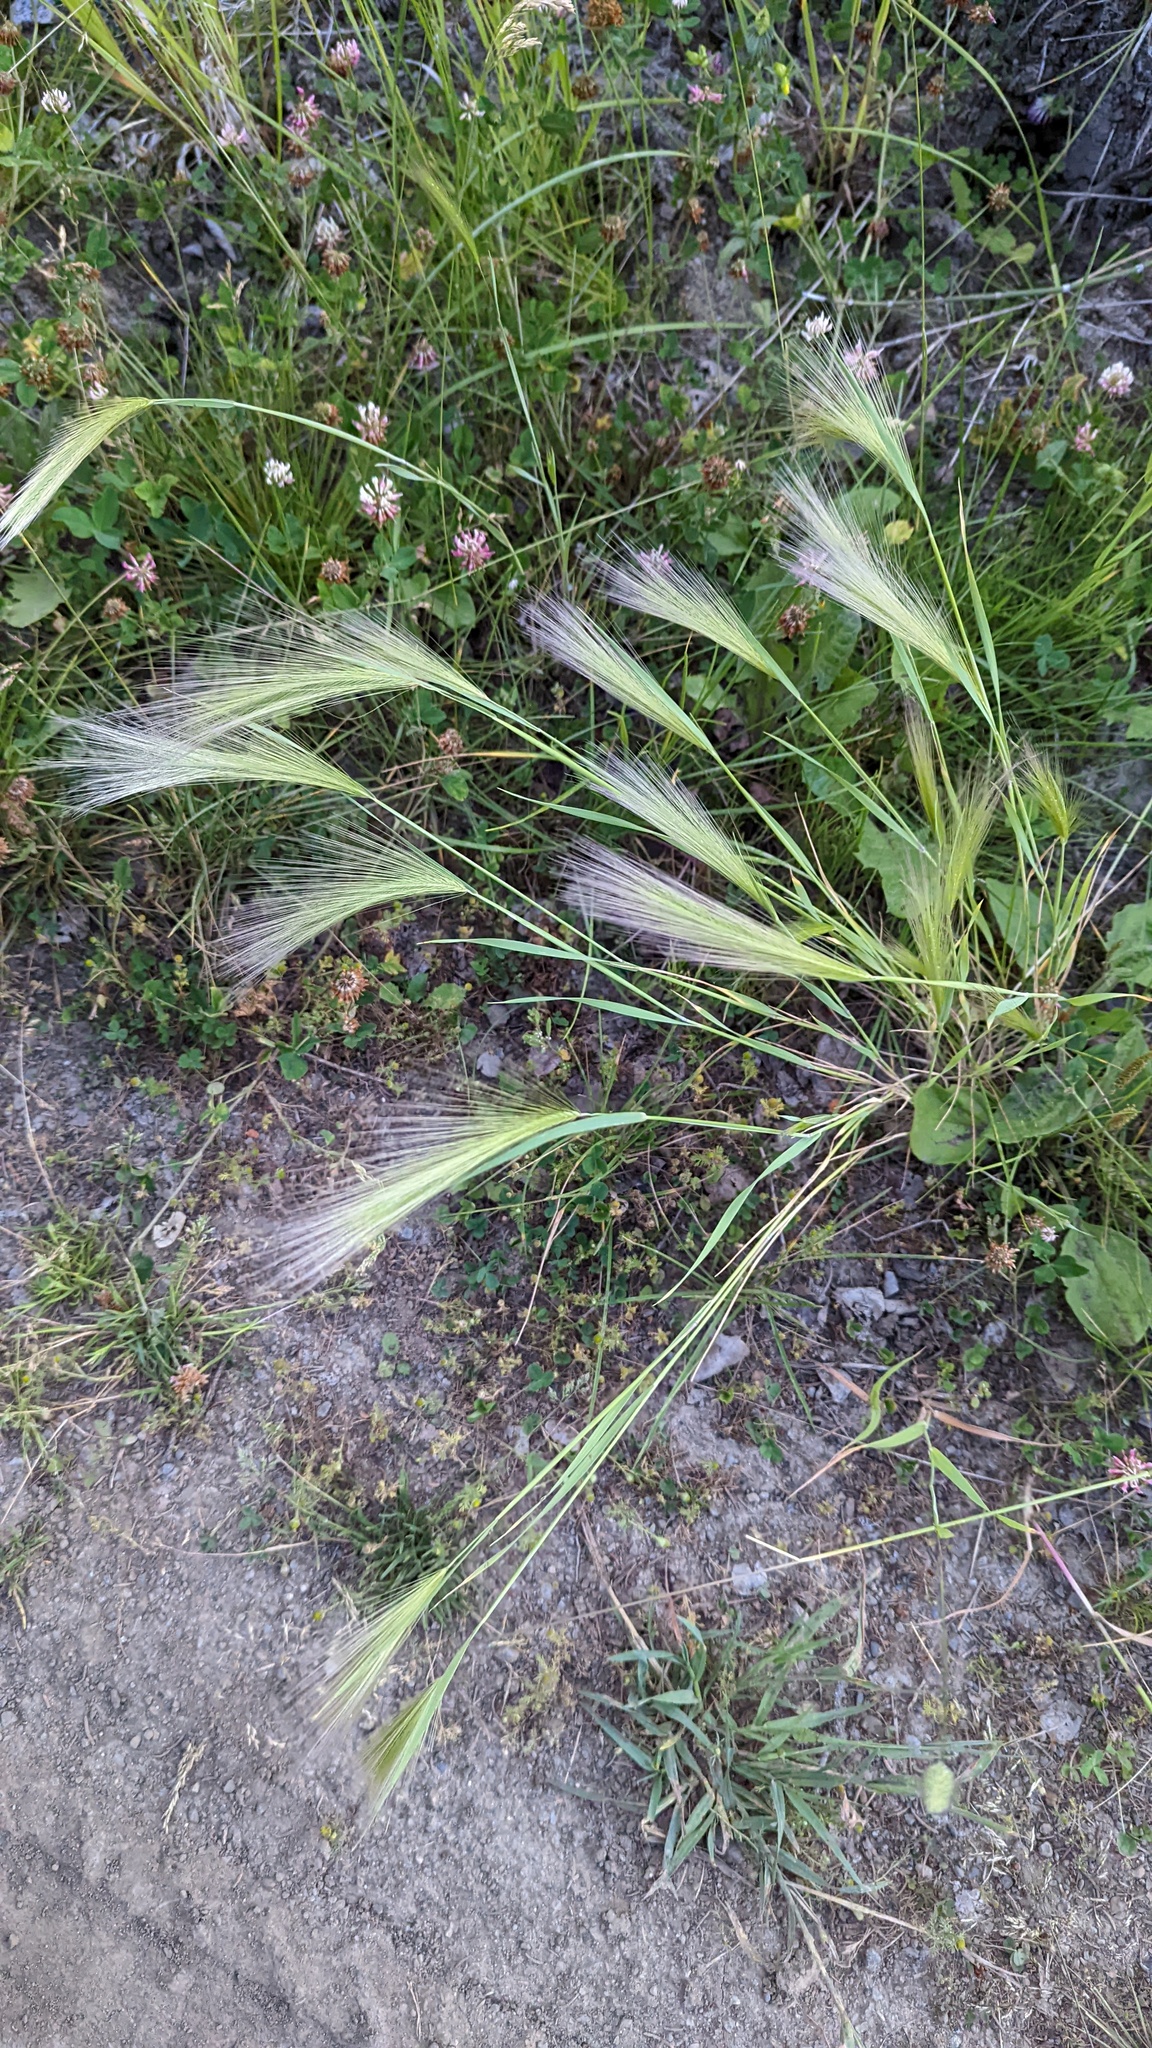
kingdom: Plantae
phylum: Tracheophyta
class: Liliopsida
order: Poales
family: Poaceae
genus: Hordeum
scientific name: Hordeum jubatum
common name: Foxtail barley
